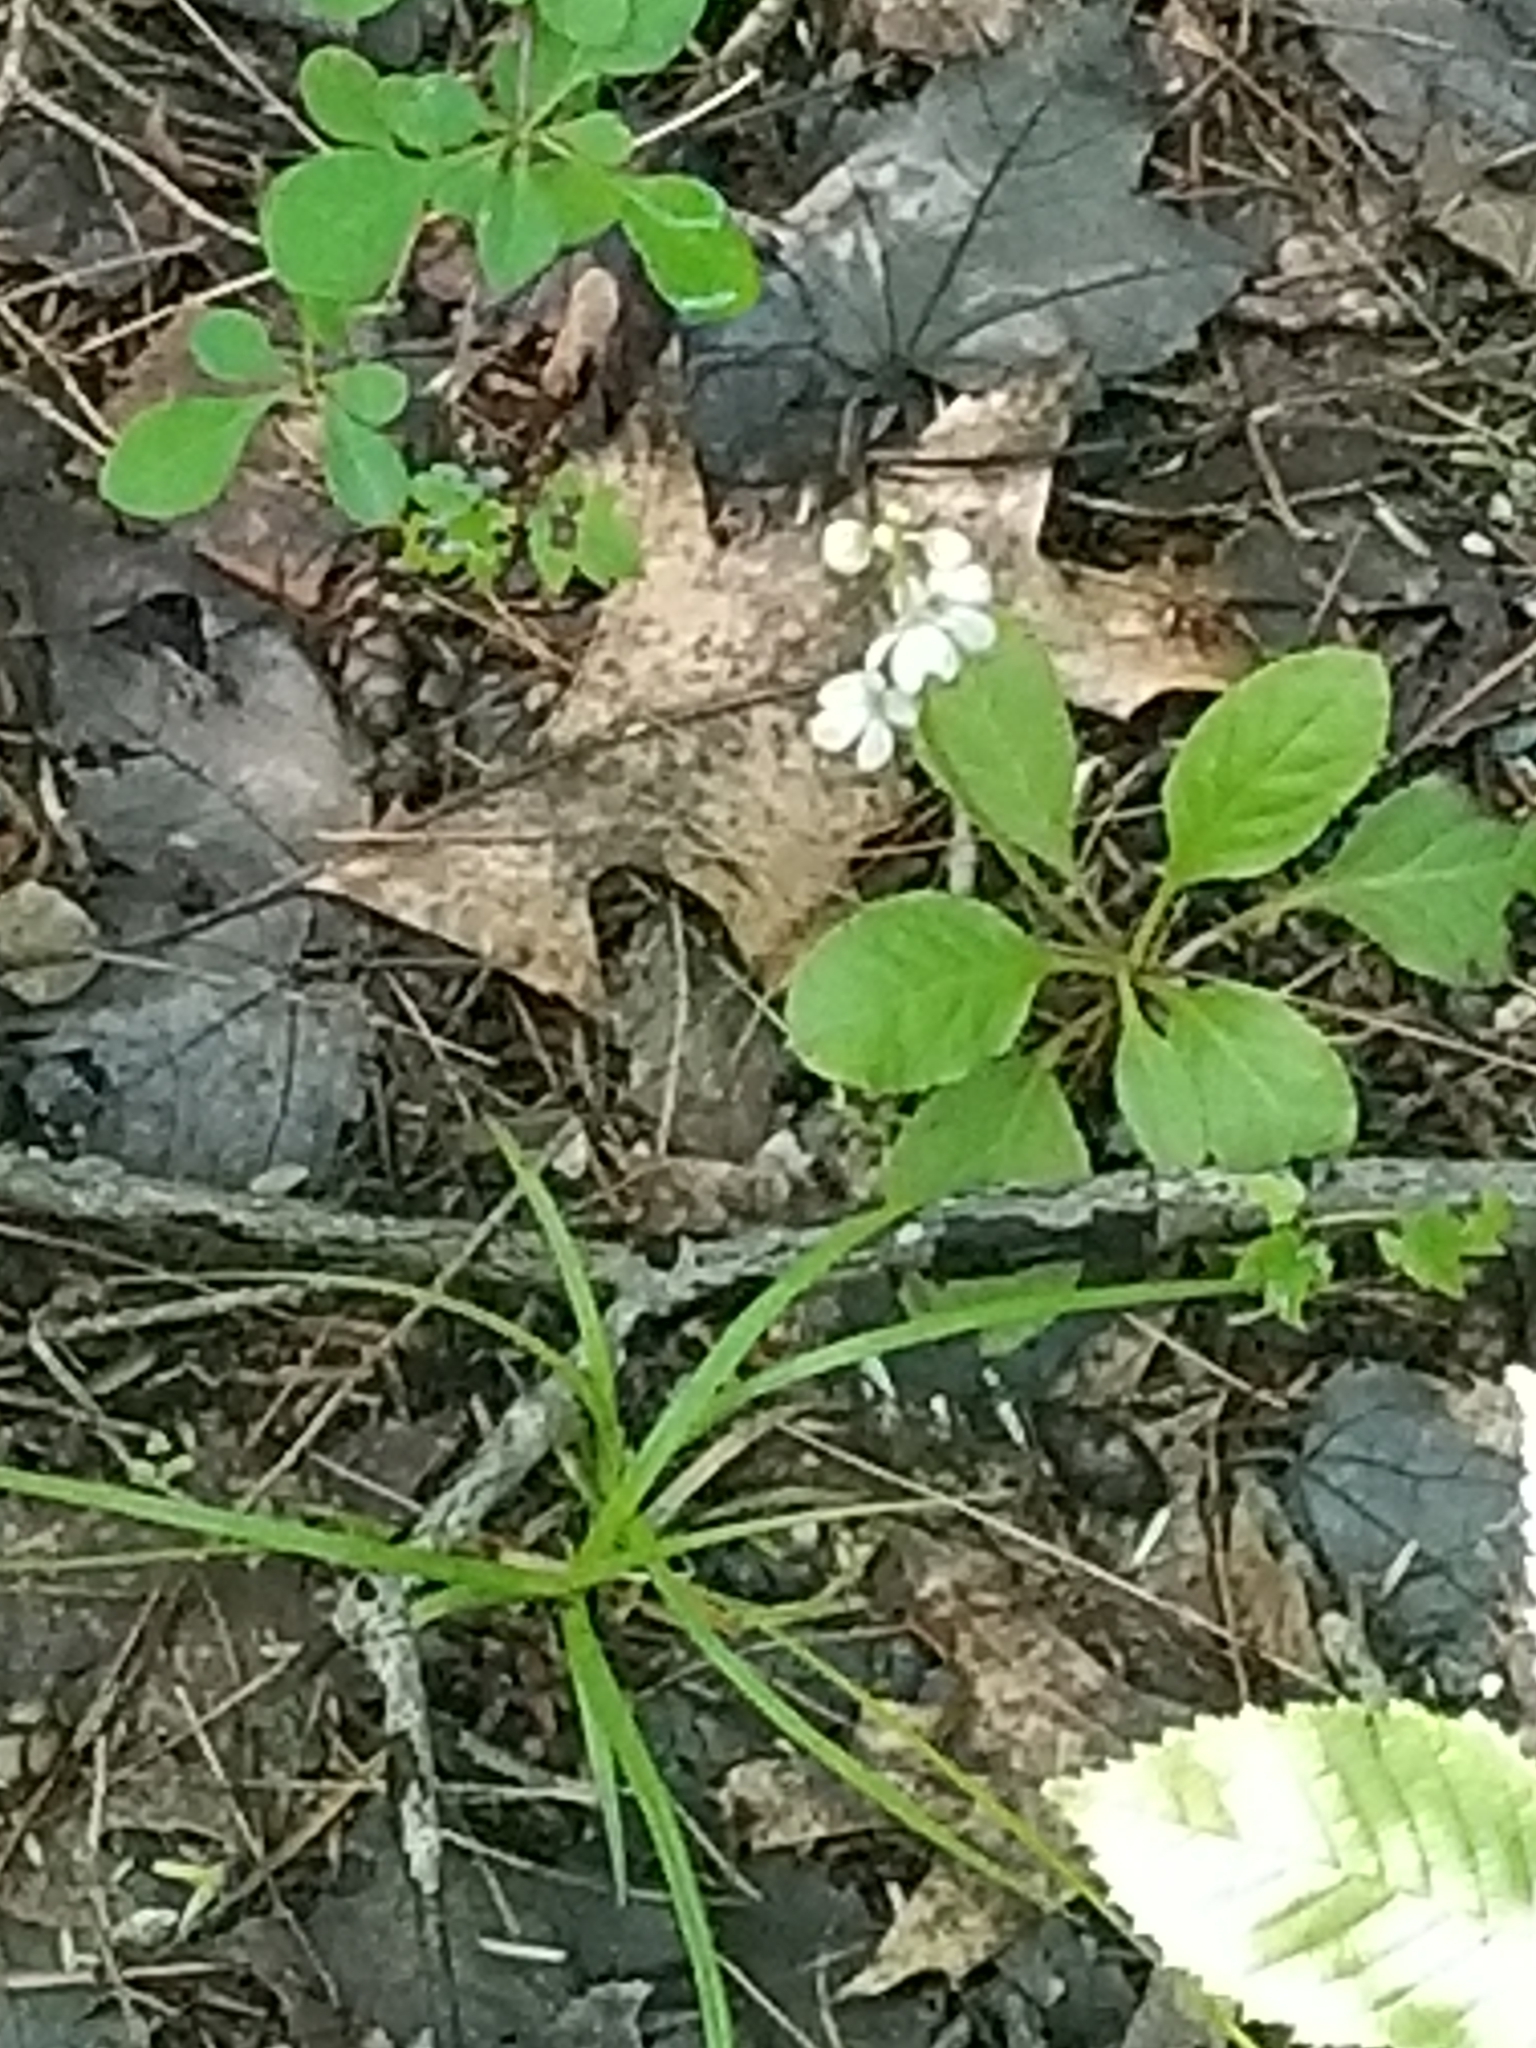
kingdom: Plantae
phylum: Tracheophyta
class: Magnoliopsida
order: Ericales
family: Ericaceae
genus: Pyrola
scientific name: Pyrola elliptica
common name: Shinleaf
